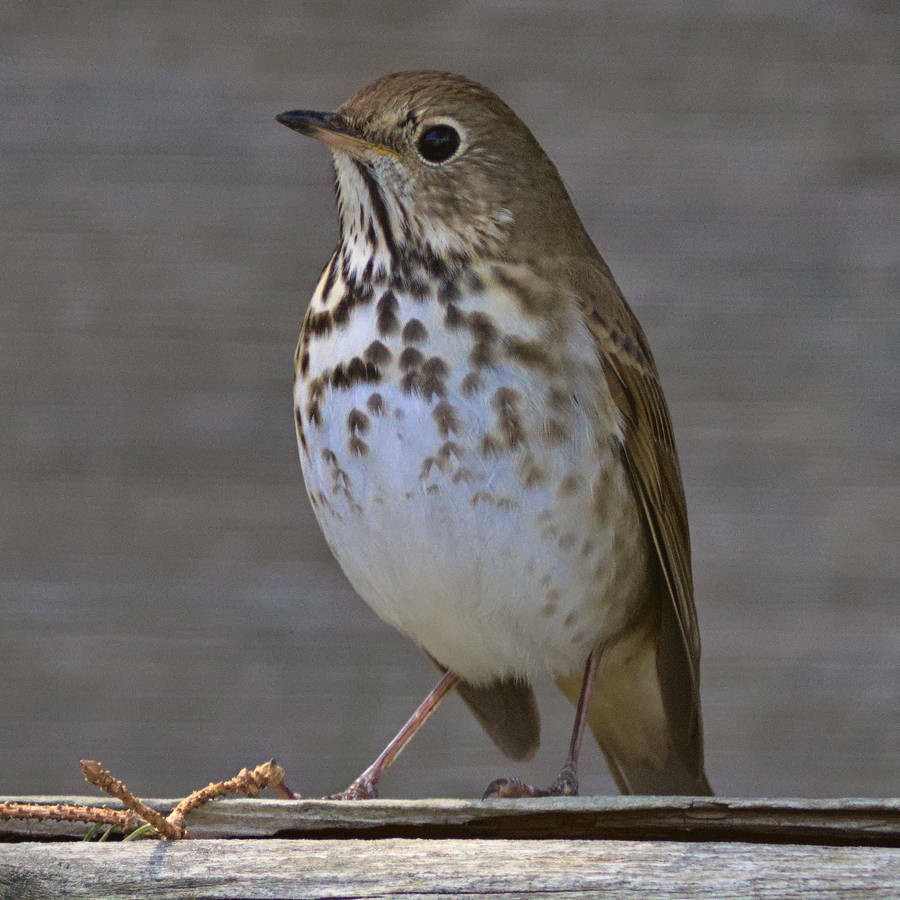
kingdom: Animalia
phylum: Chordata
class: Aves
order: Passeriformes
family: Turdidae
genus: Catharus
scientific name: Catharus guttatus
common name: Hermit thrush
